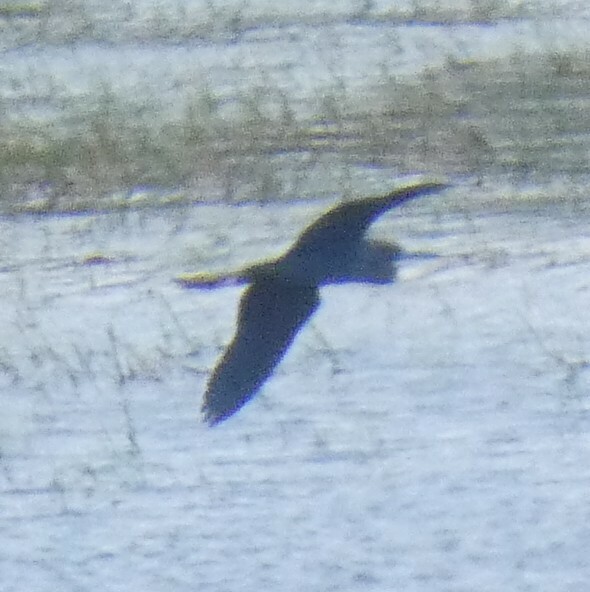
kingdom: Animalia
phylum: Chordata
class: Aves
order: Pelecaniformes
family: Ardeidae
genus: Egretta
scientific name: Egretta caerulea
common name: Little blue heron
